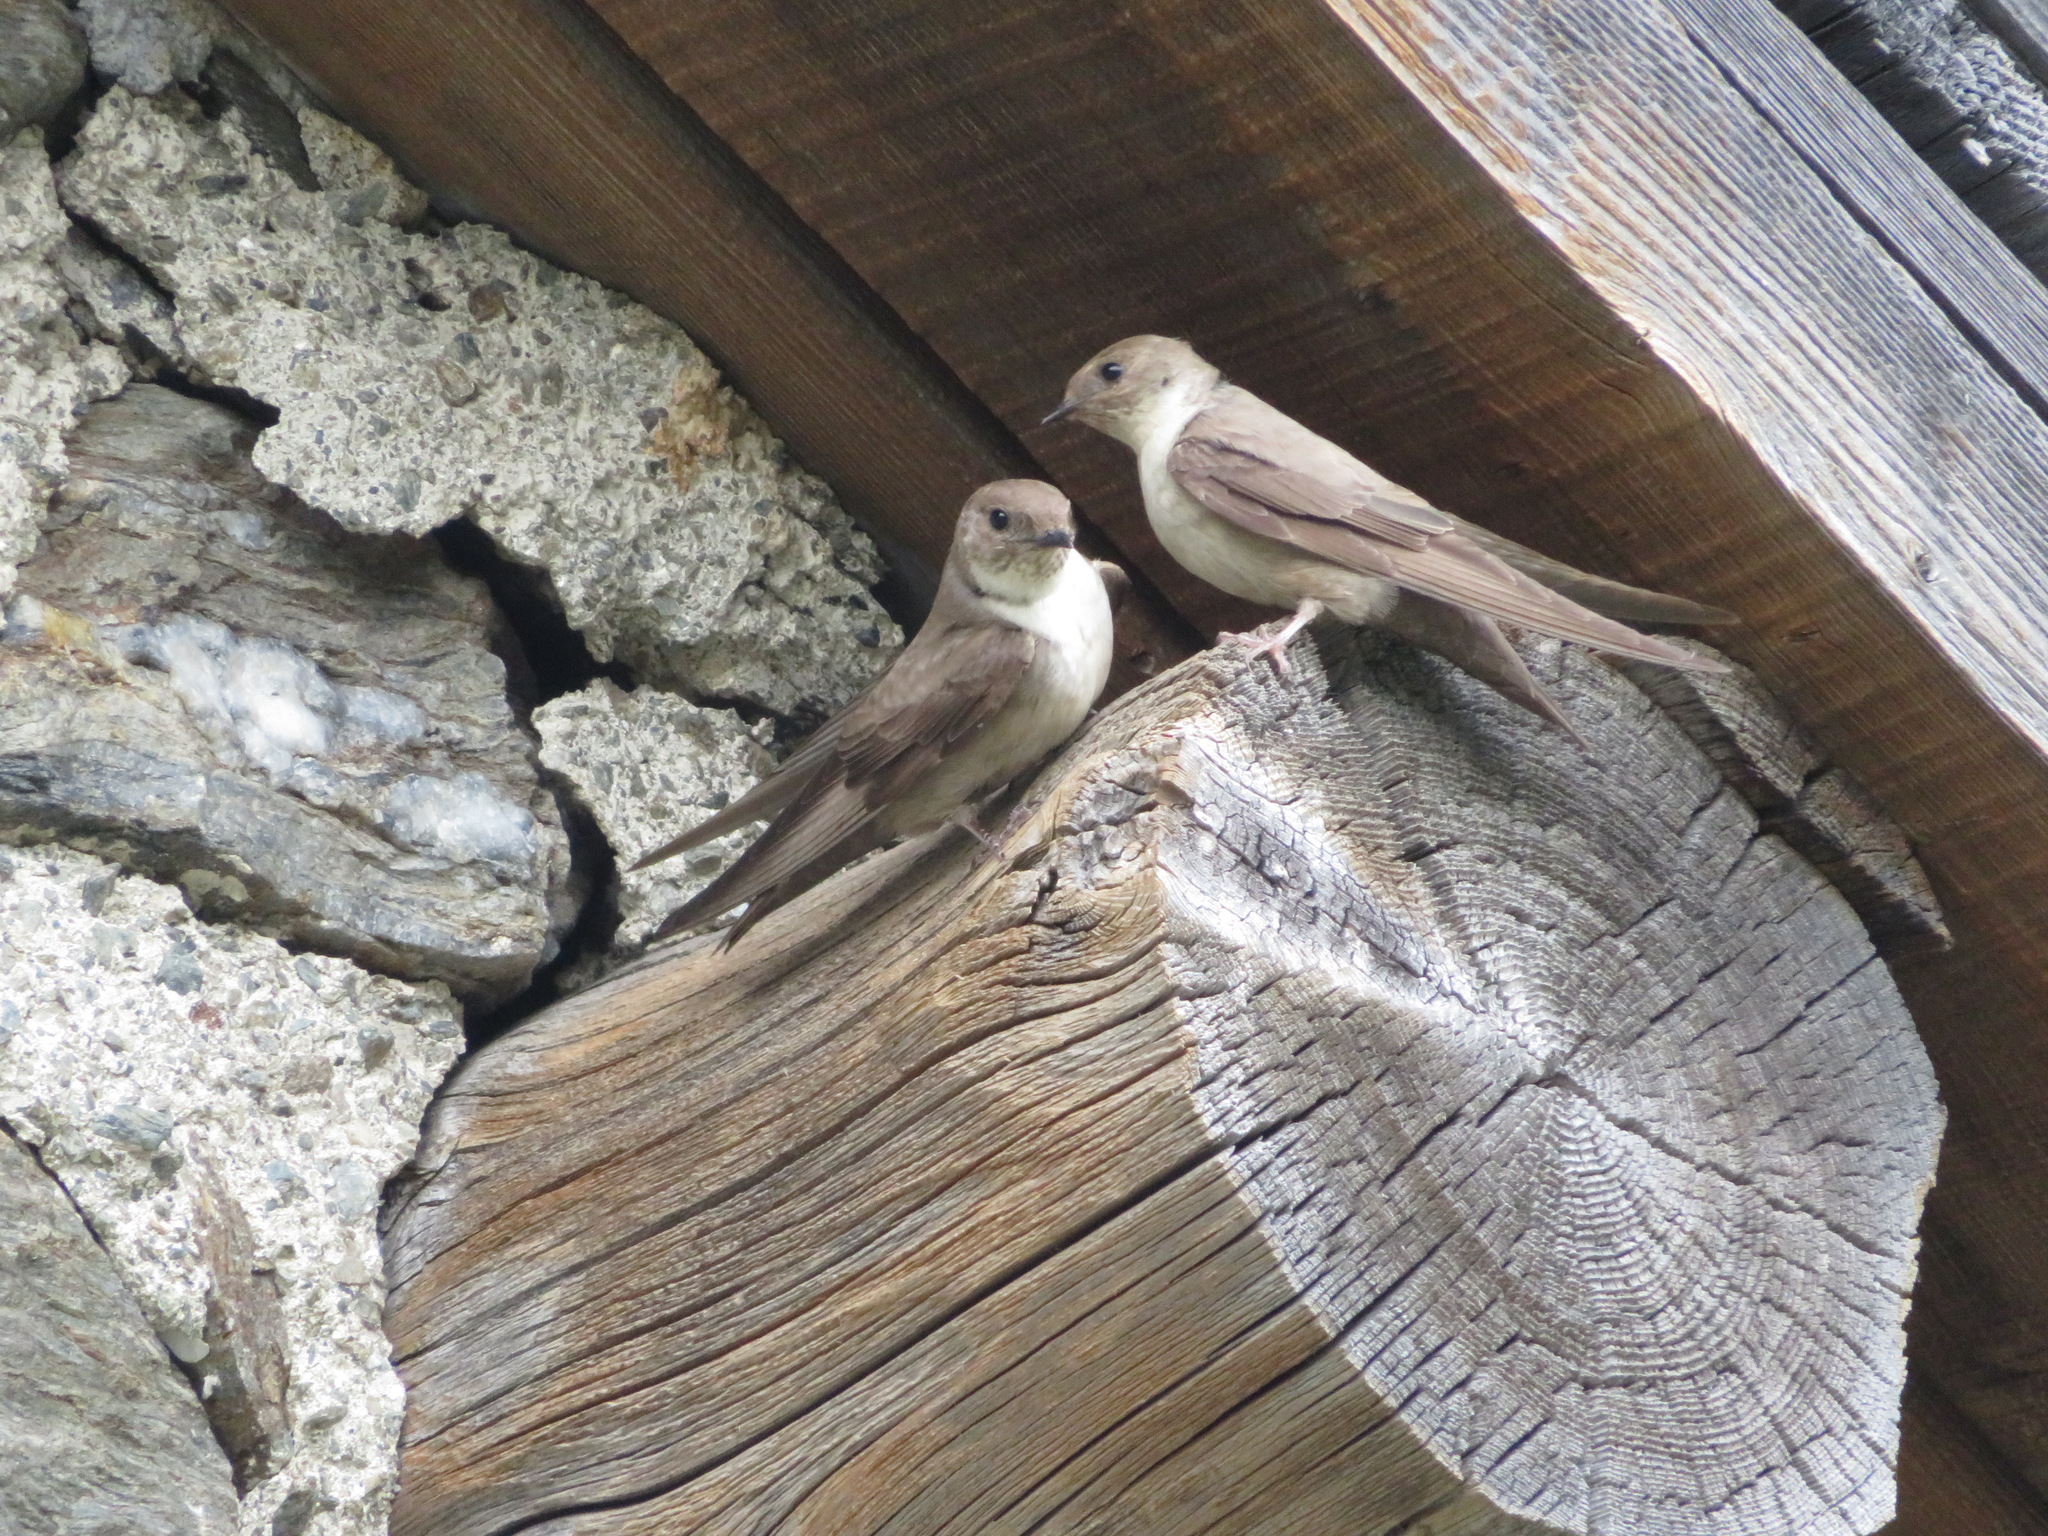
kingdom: Animalia
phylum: Chordata
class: Aves
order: Passeriformes
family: Hirundinidae
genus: Ptyonoprogne
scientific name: Ptyonoprogne rupestris
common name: Eurasian crag martin
